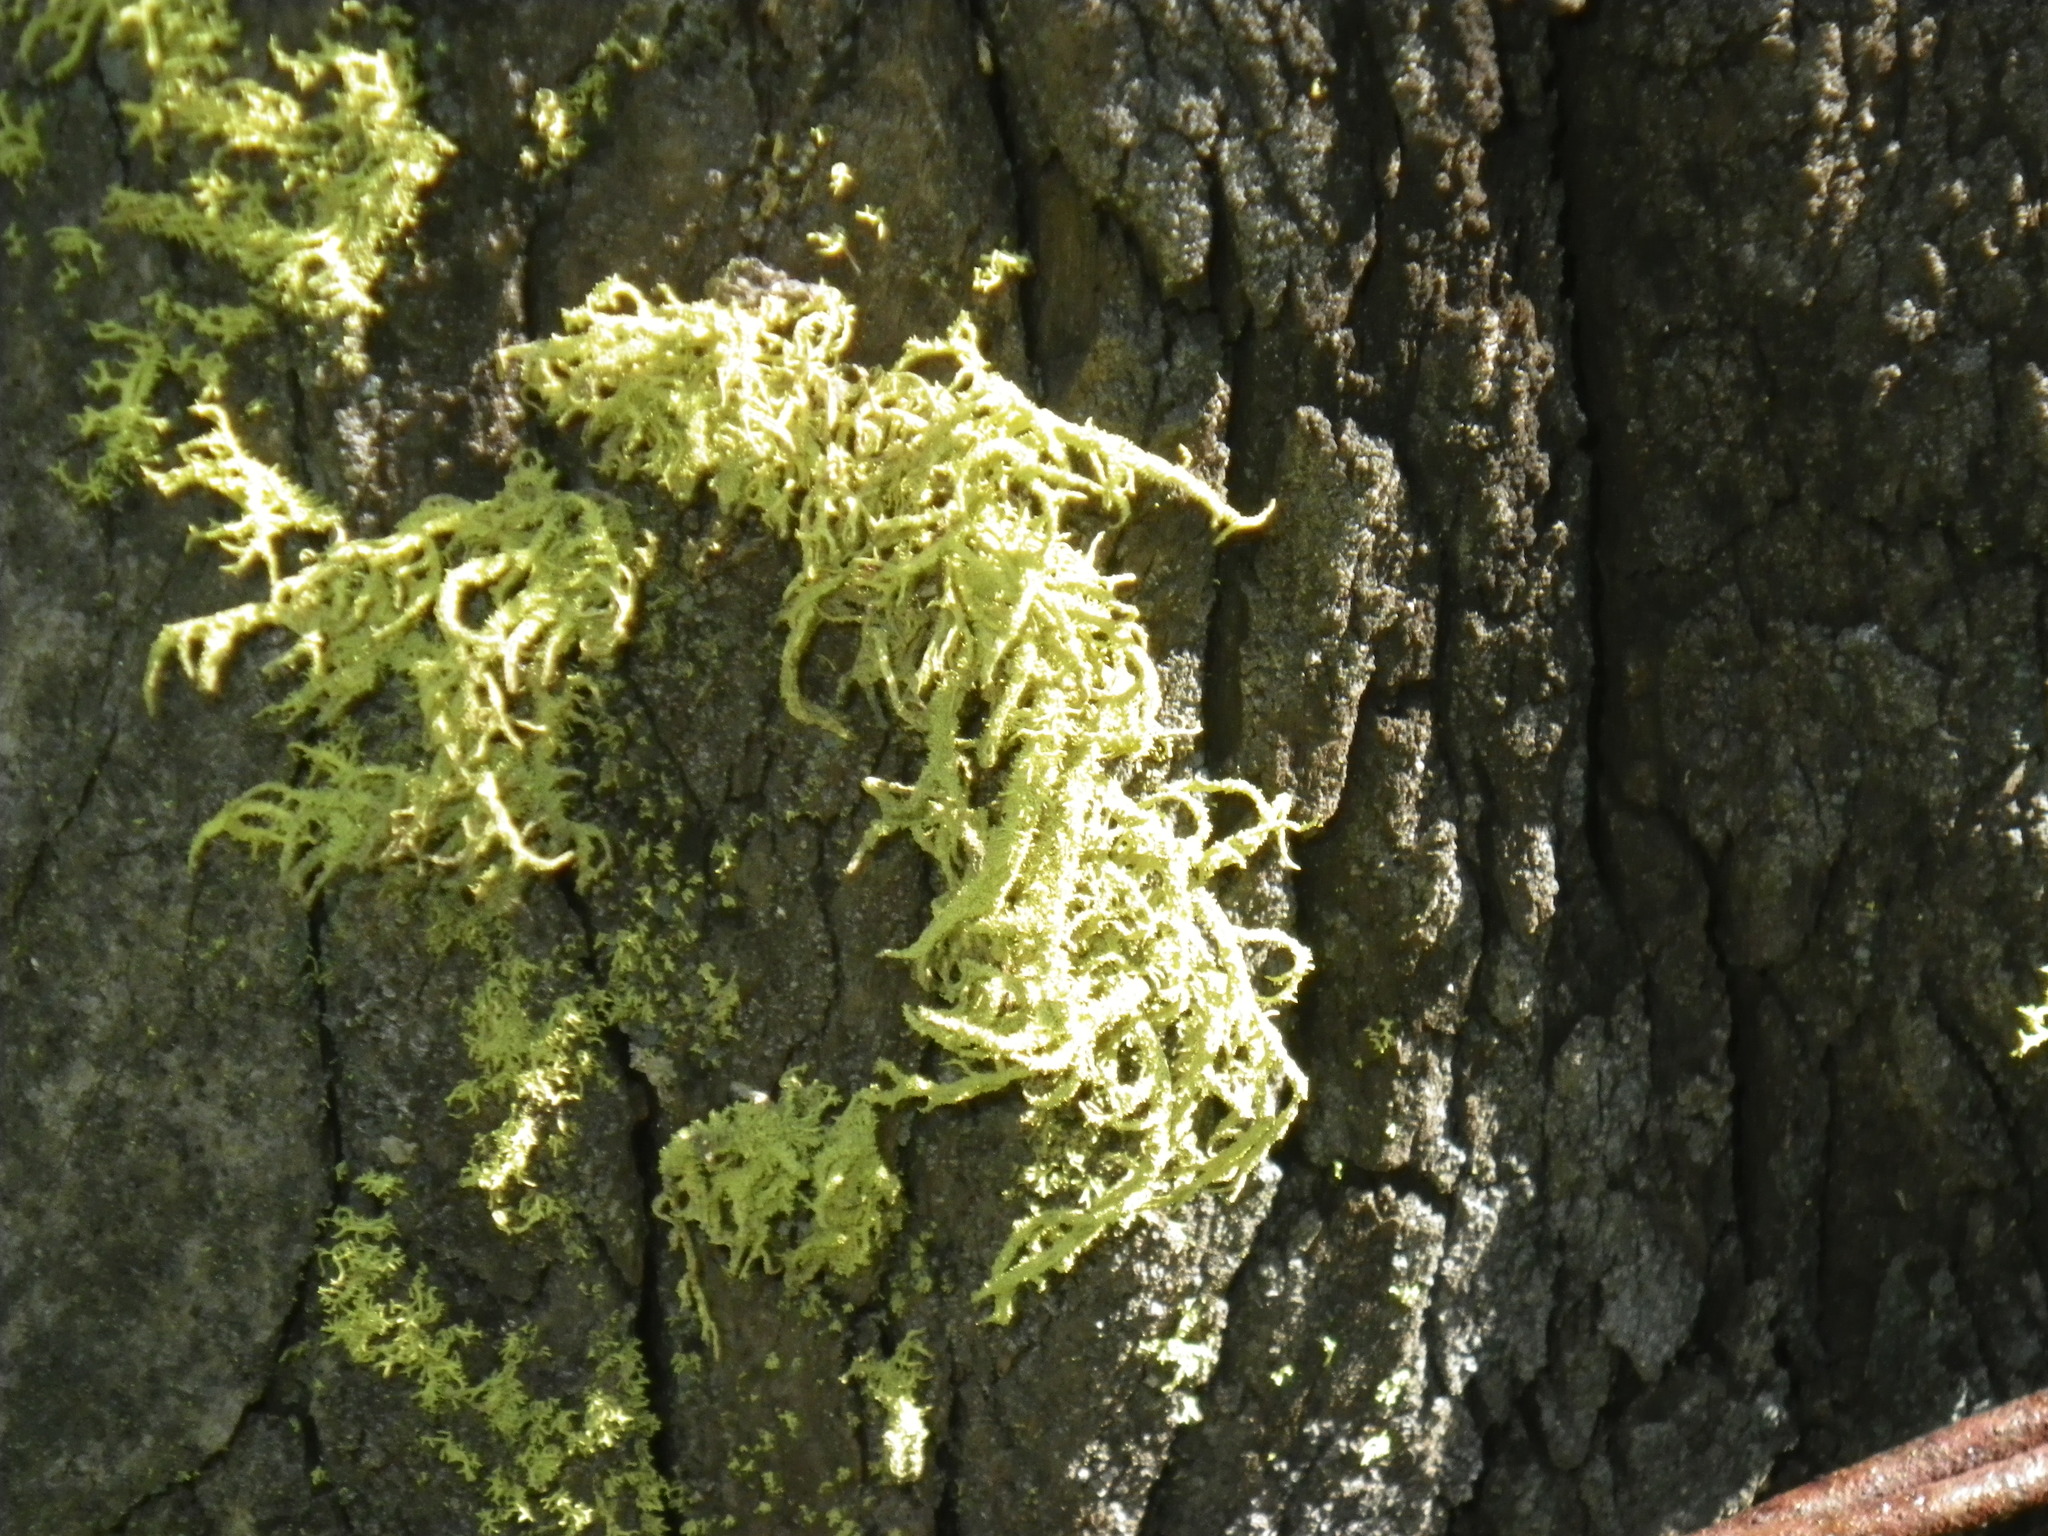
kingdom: Fungi
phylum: Ascomycota
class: Lecanoromycetes
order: Lecanorales
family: Parmeliaceae
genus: Letharia
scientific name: Letharia vulpina
